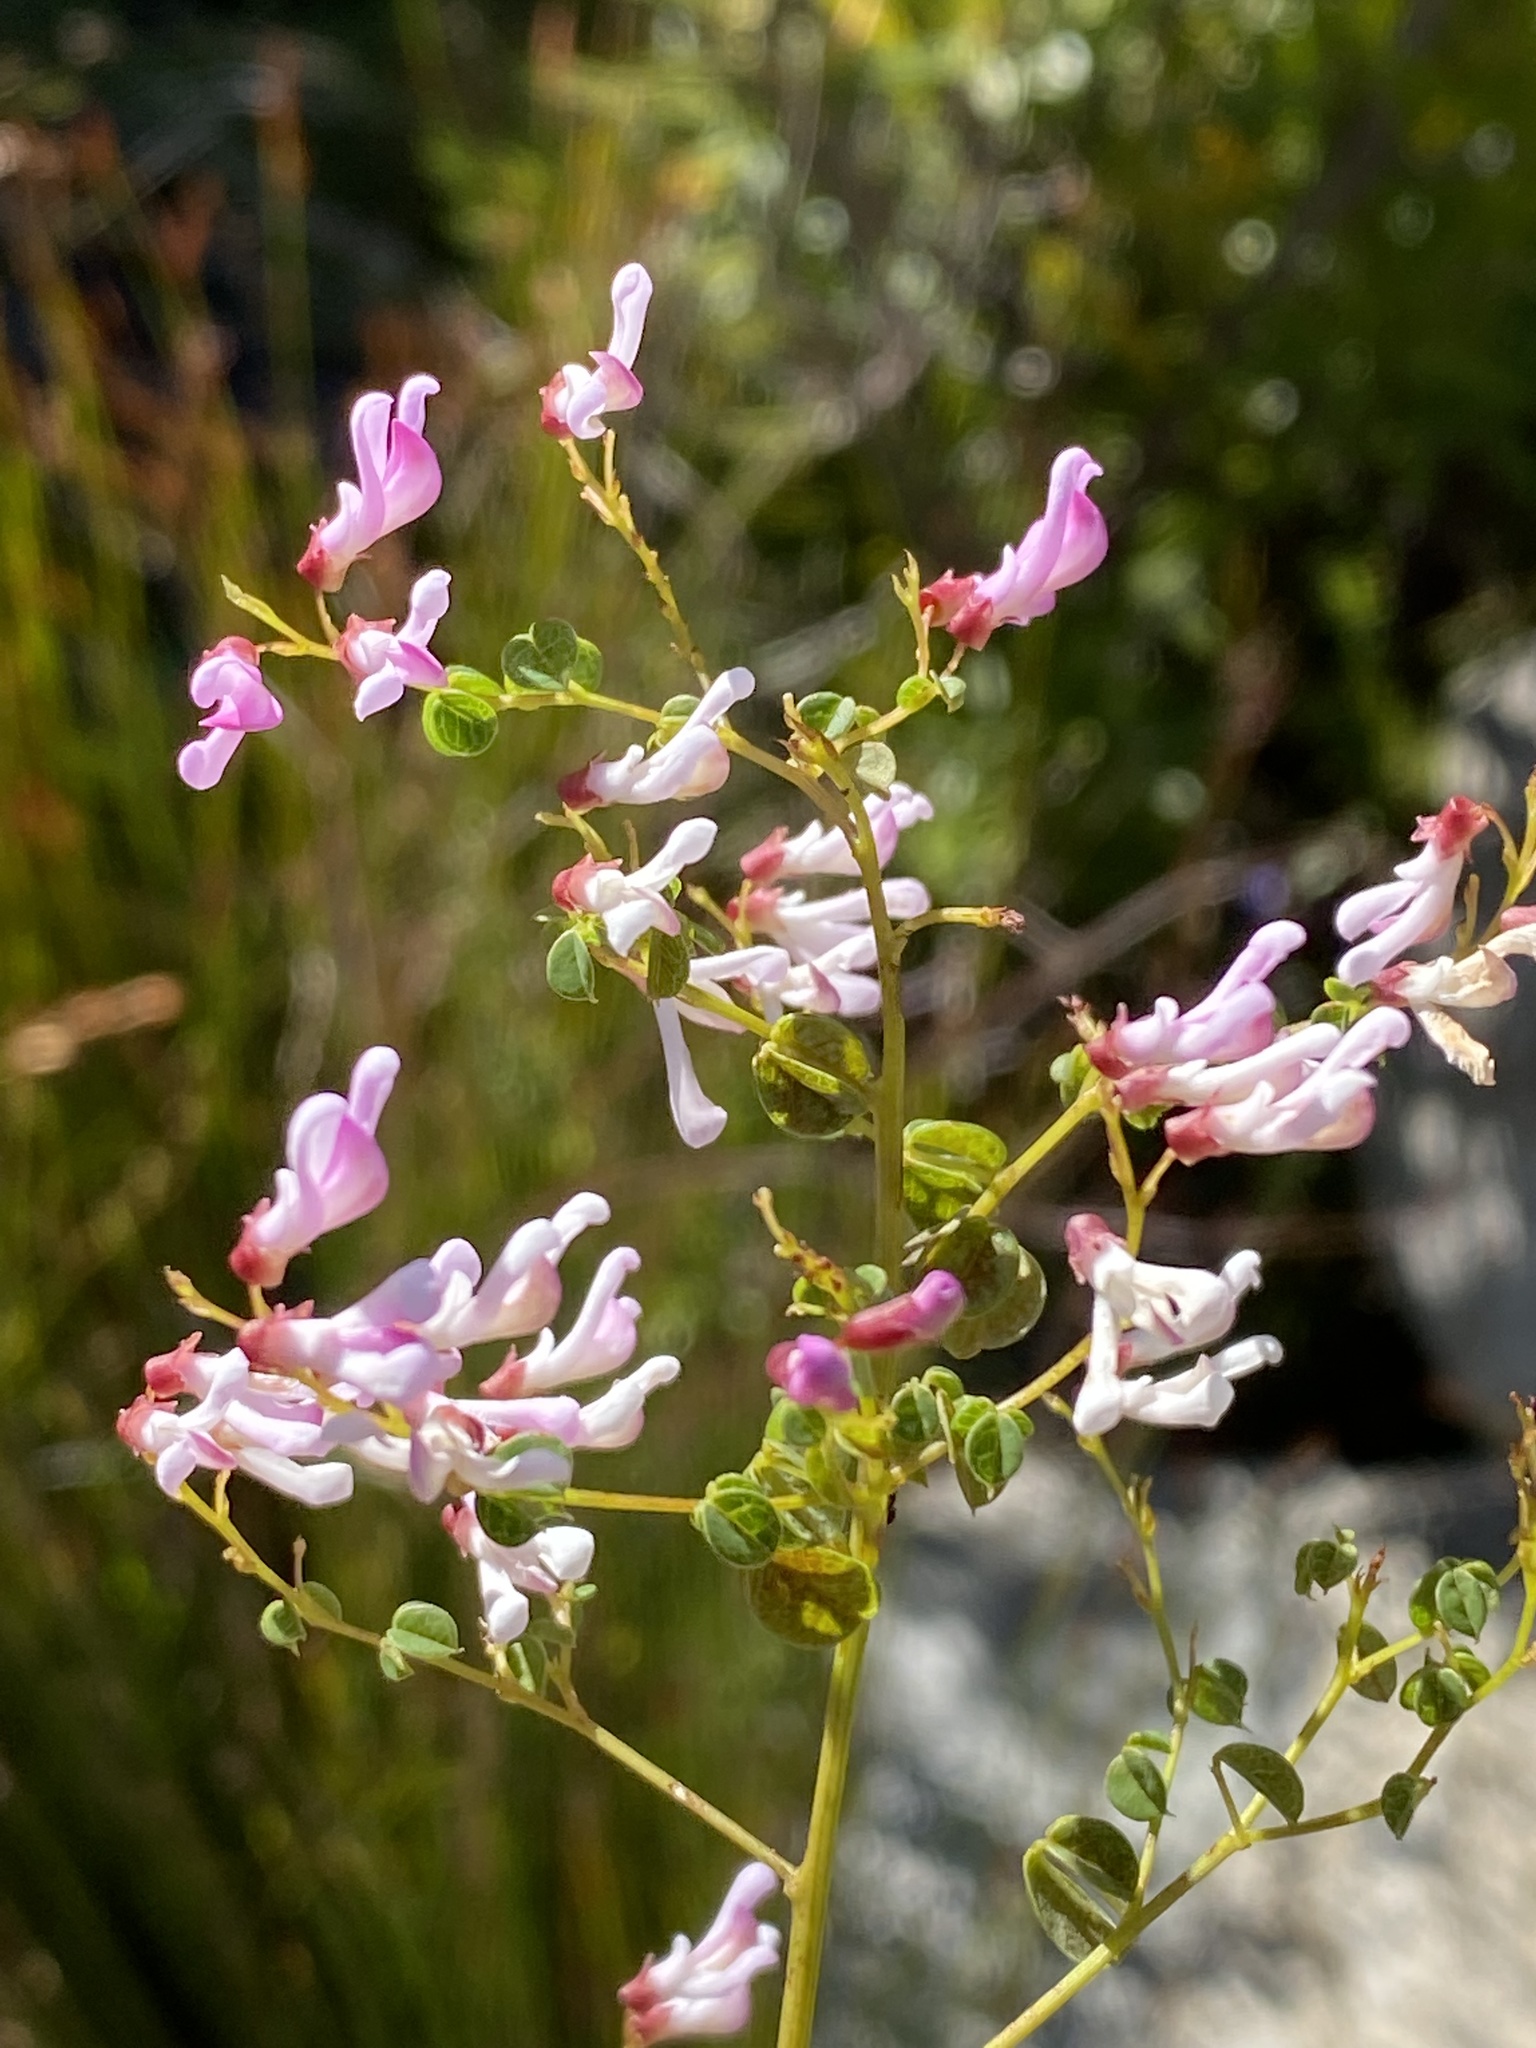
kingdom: Plantae
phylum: Tracheophyta
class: Magnoliopsida
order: Fabales
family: Fabaceae
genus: Hypocalyptus
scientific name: Hypocalyptus oxalidifolius
